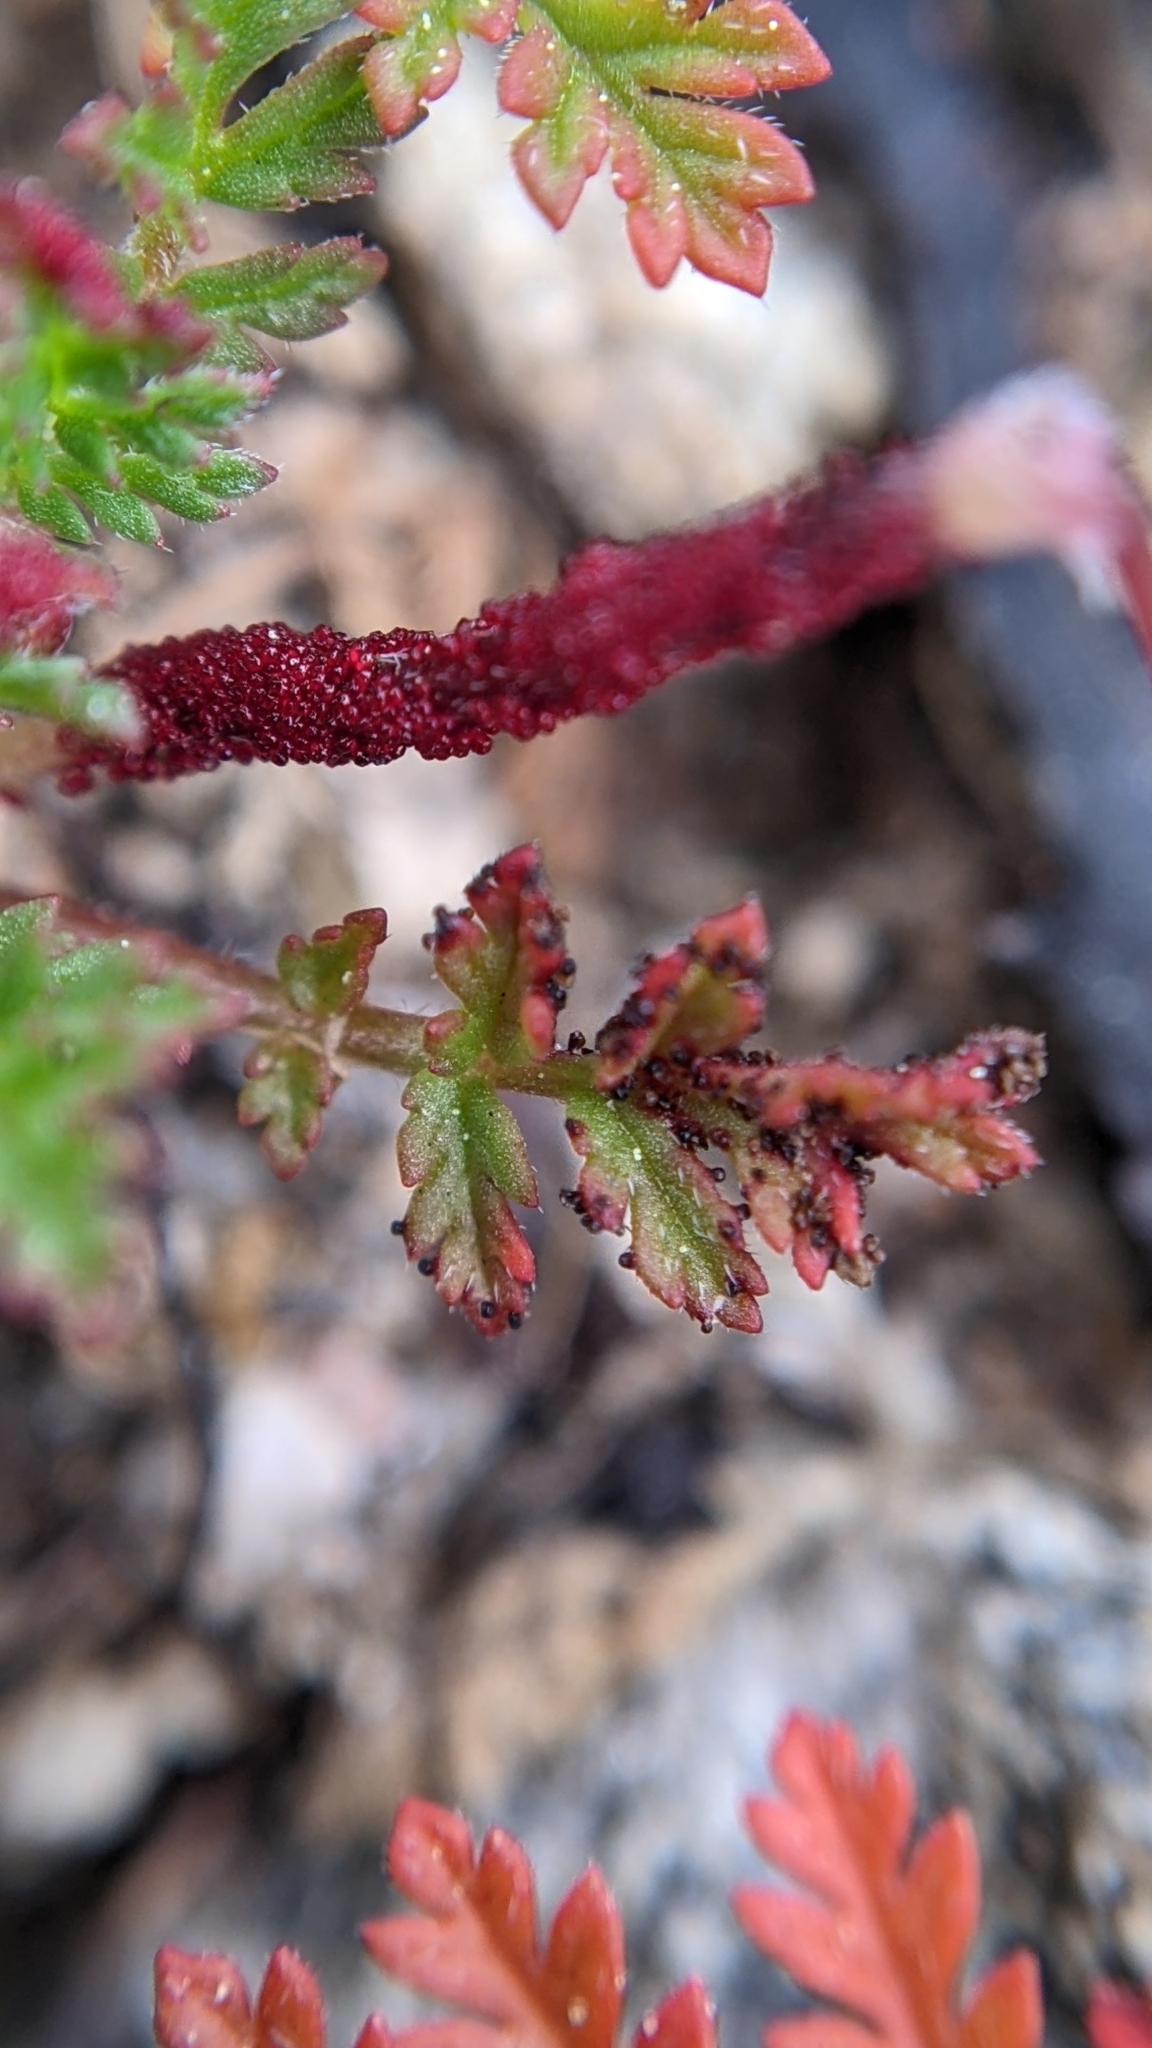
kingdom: Fungi
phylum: Chytridiomycota
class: Chytridiomycetes
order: Chytridiales
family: Synchytriaceae
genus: Synchytrium
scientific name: Synchytrium papillatum
